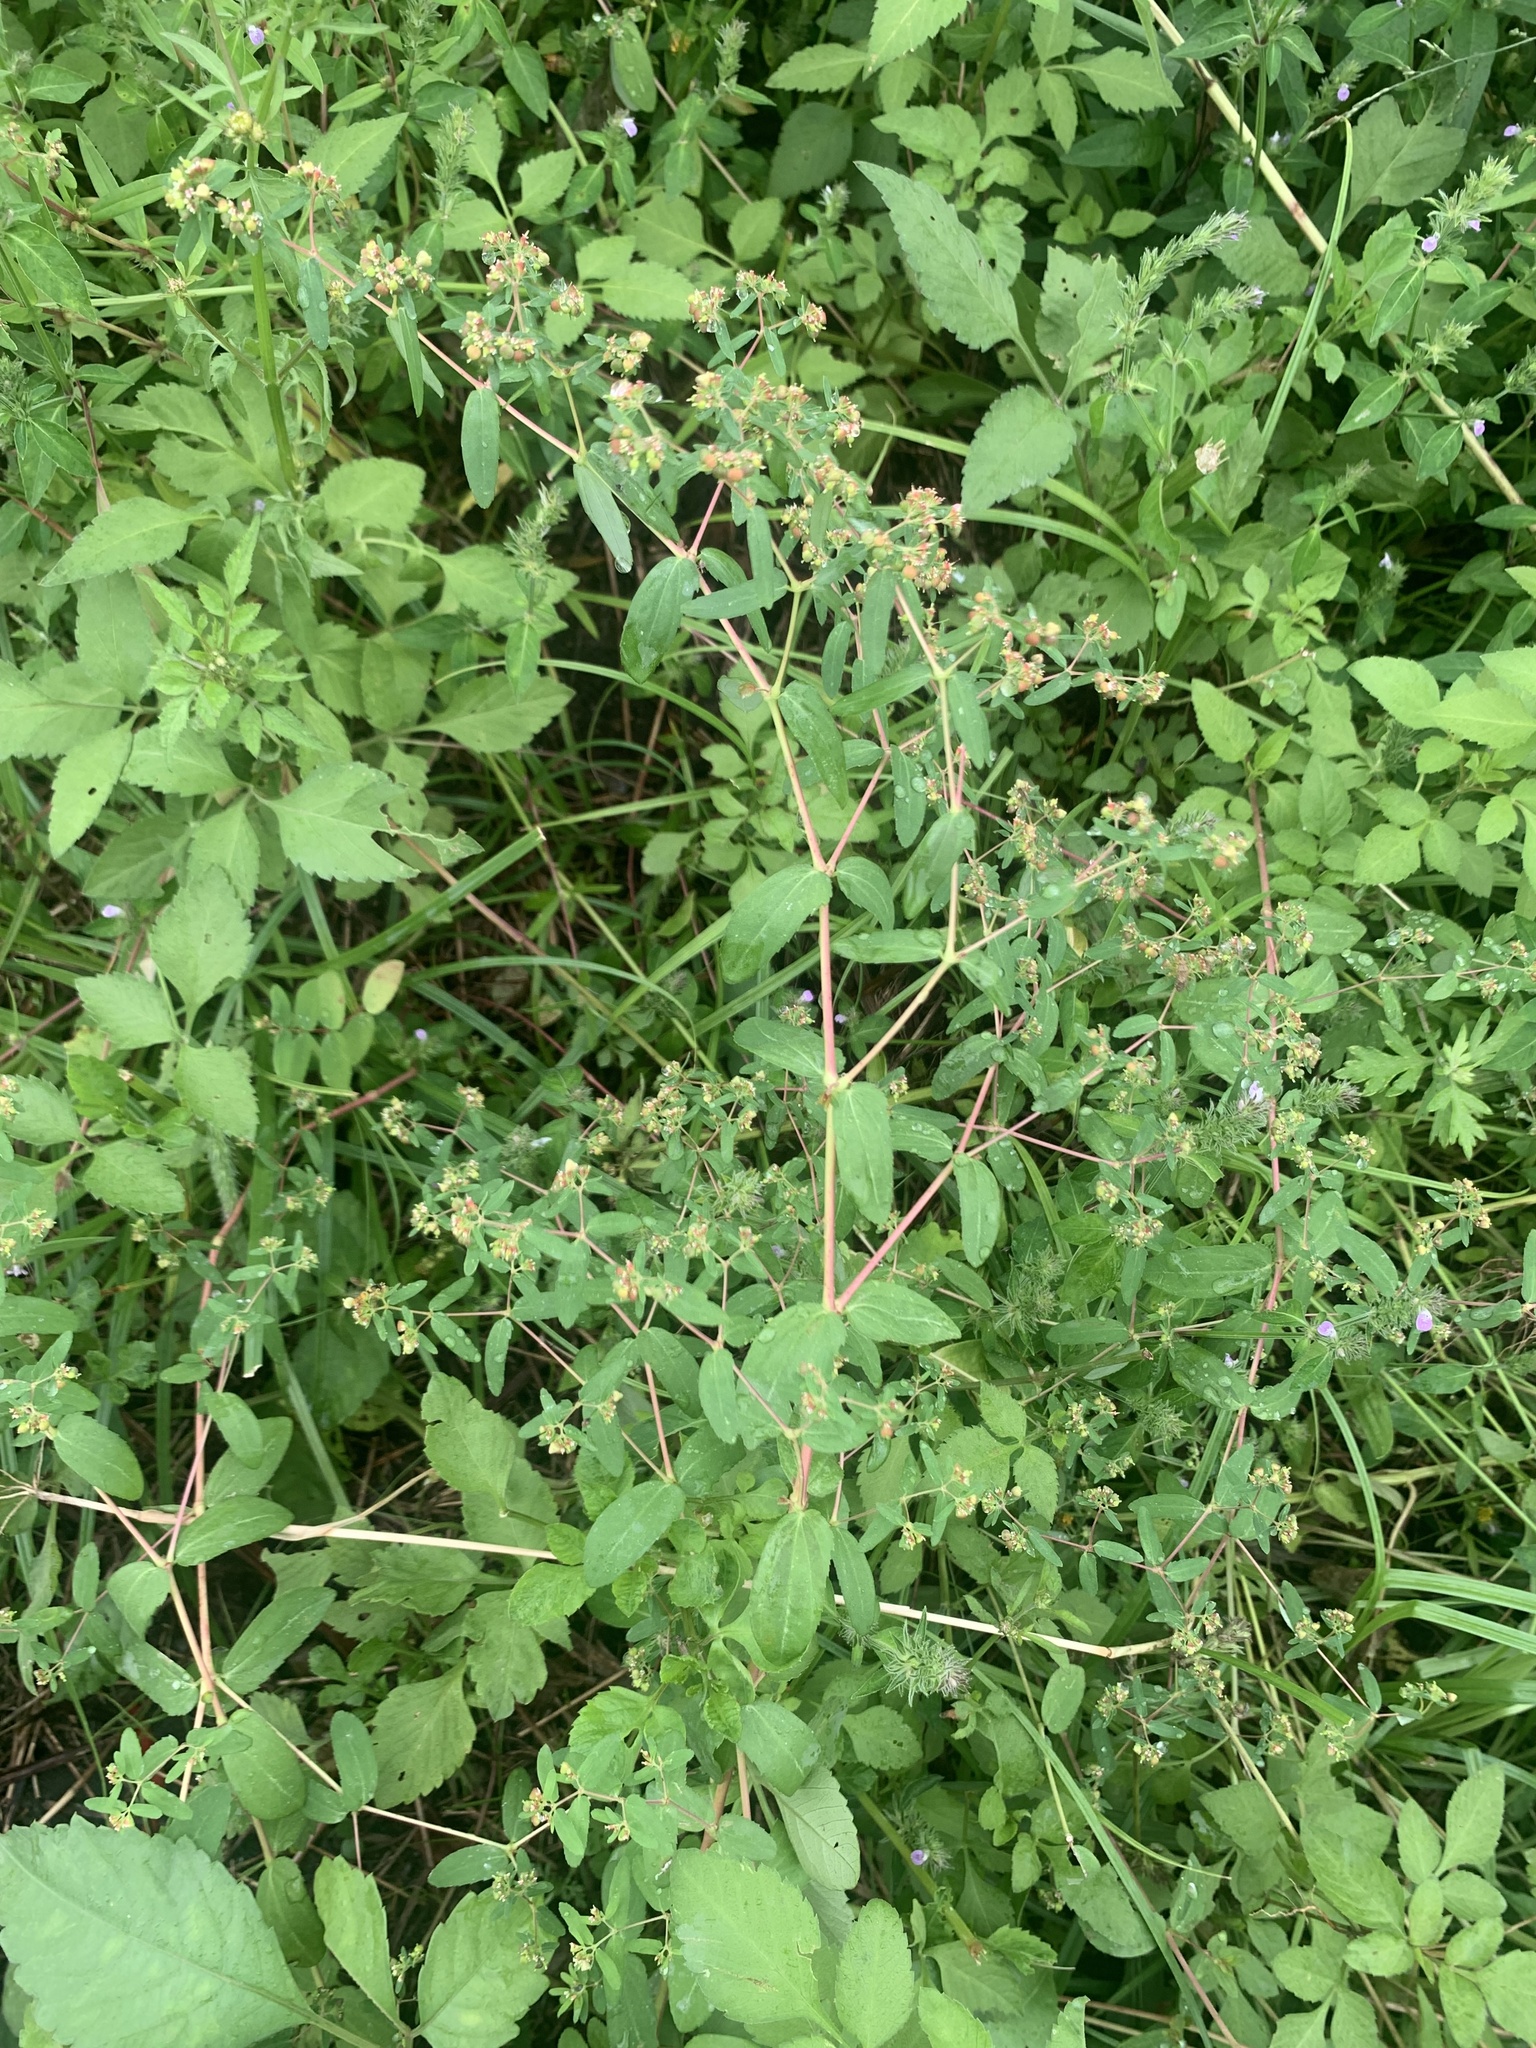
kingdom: Plantae
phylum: Tracheophyta
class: Magnoliopsida
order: Malpighiales
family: Euphorbiaceae
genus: Euphorbia
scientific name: Euphorbia nutans
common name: Eyebane
